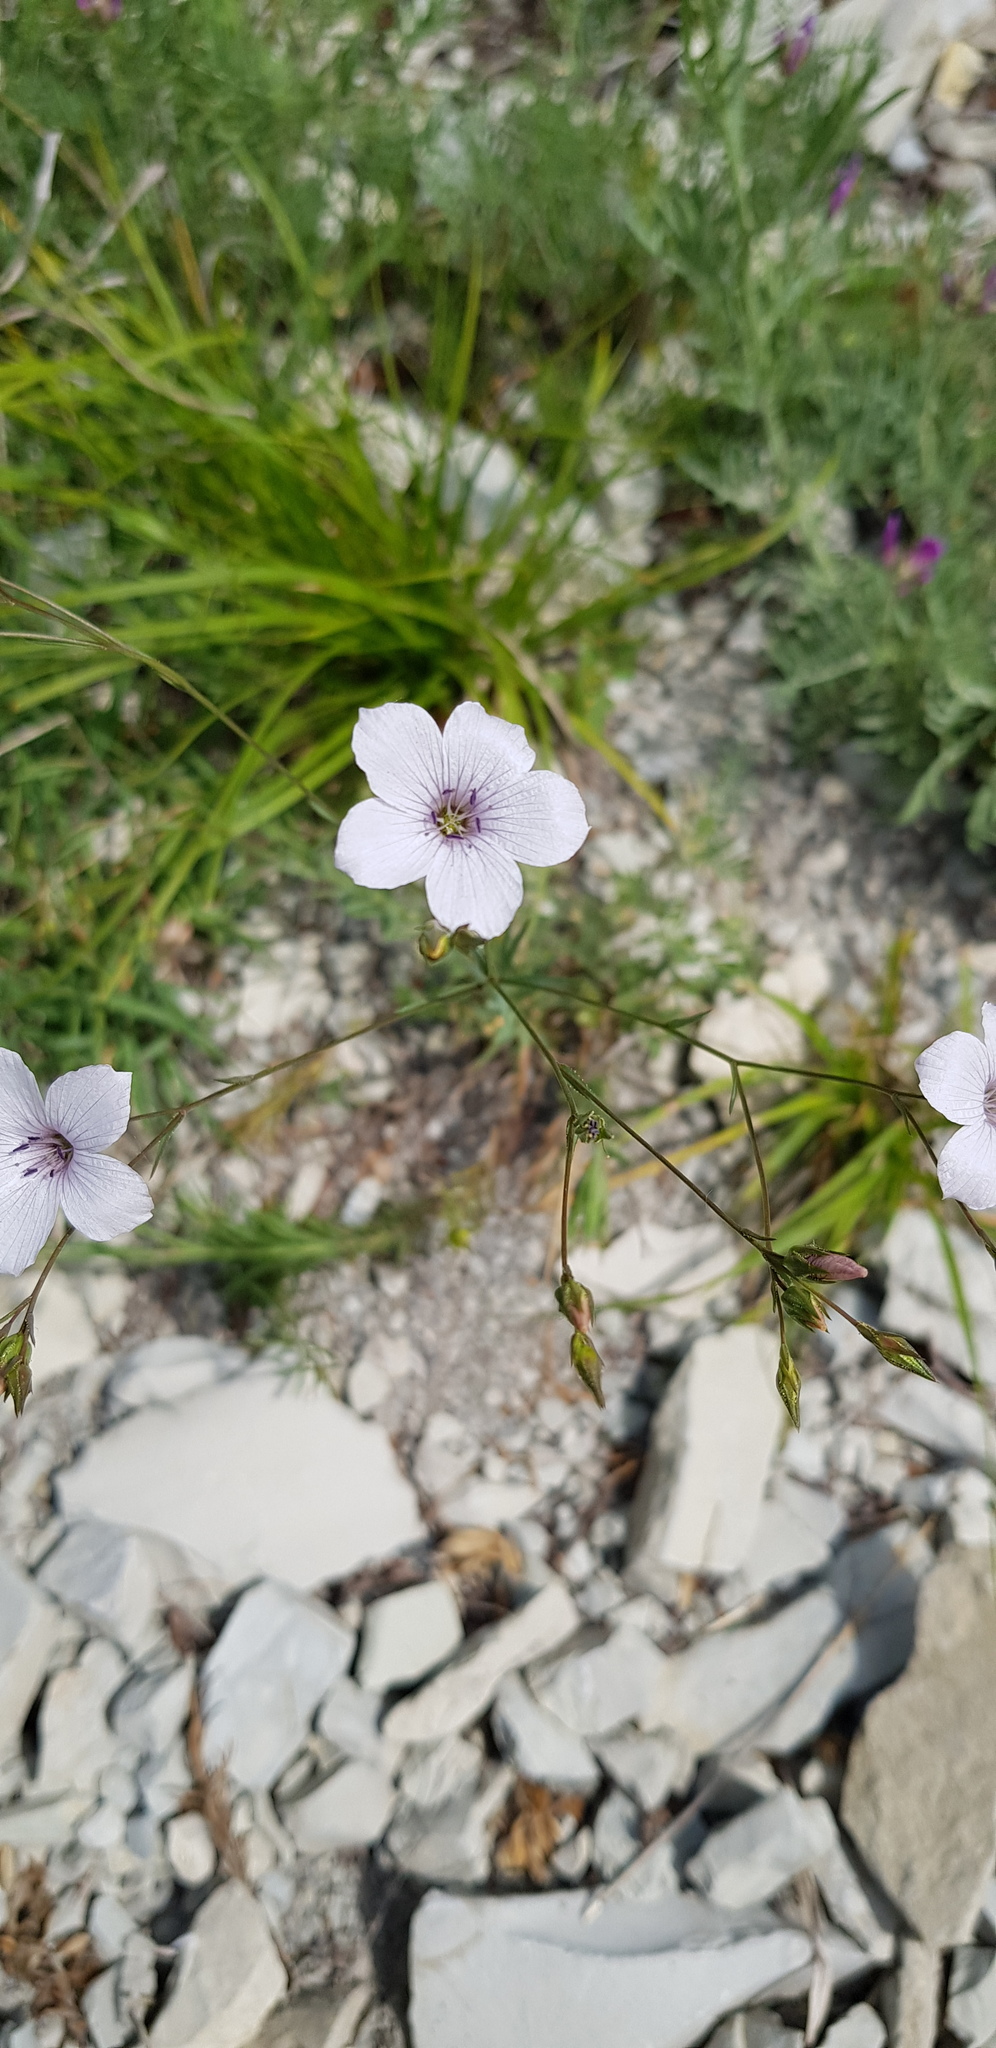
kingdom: Plantae
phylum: Tracheophyta
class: Magnoliopsida
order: Malpighiales
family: Linaceae
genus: Linum
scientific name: Linum tenuifolium
